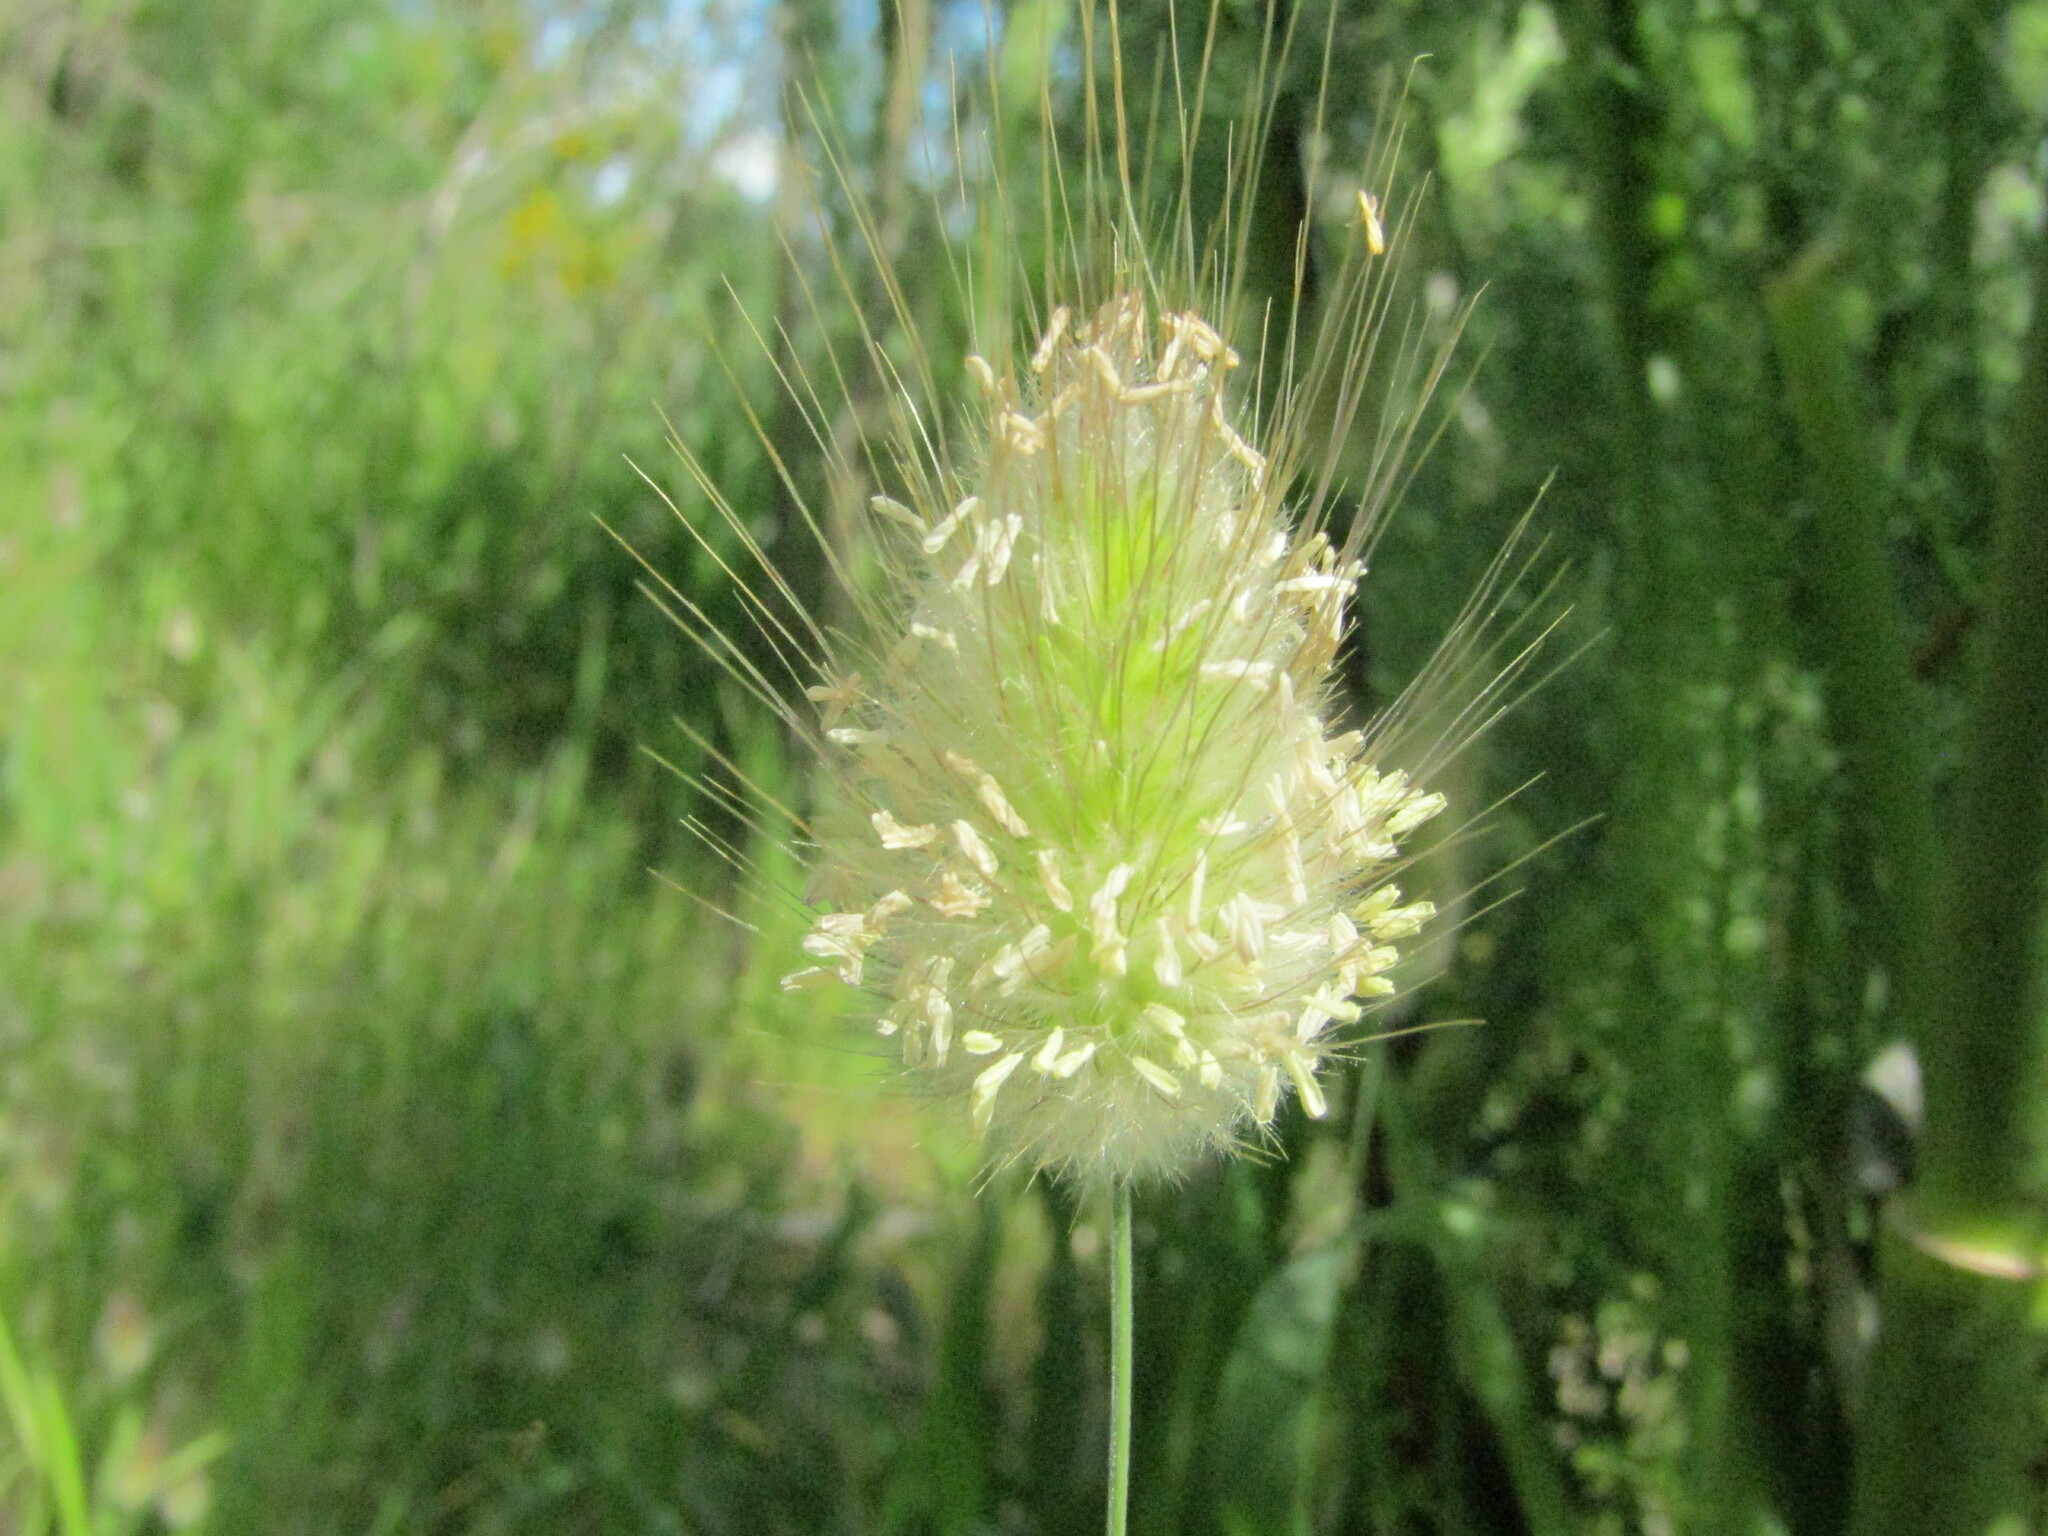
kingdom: Plantae
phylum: Tracheophyta
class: Liliopsida
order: Poales
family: Poaceae
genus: Lagurus
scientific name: Lagurus ovatus
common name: Hare's-tail
